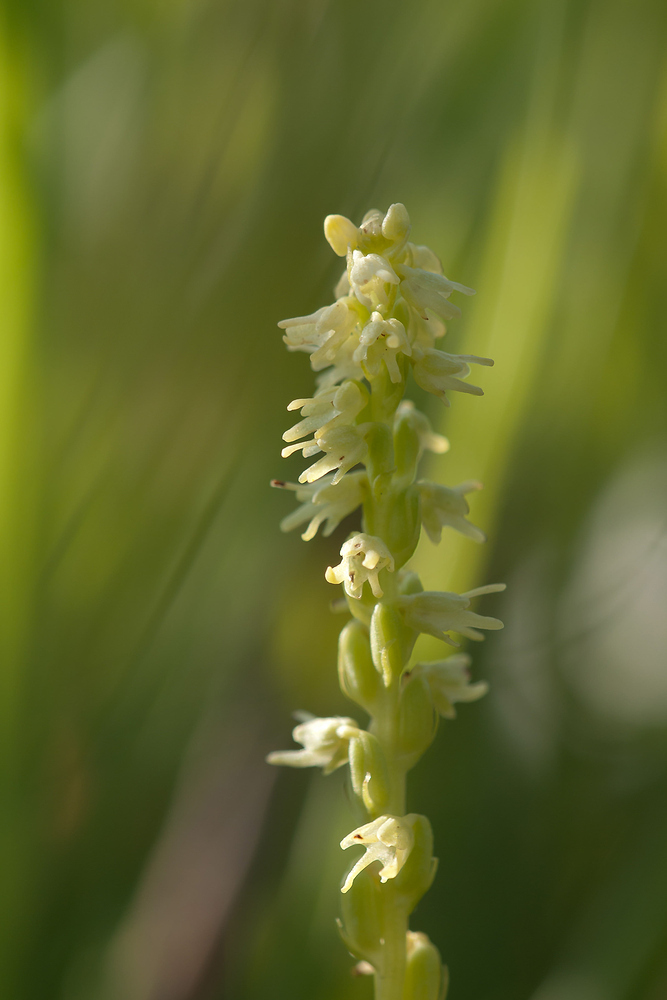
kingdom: Plantae
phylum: Tracheophyta
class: Liliopsida
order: Asparagales
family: Orchidaceae
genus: Herminium
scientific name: Herminium monorchis
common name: Musk orchid
